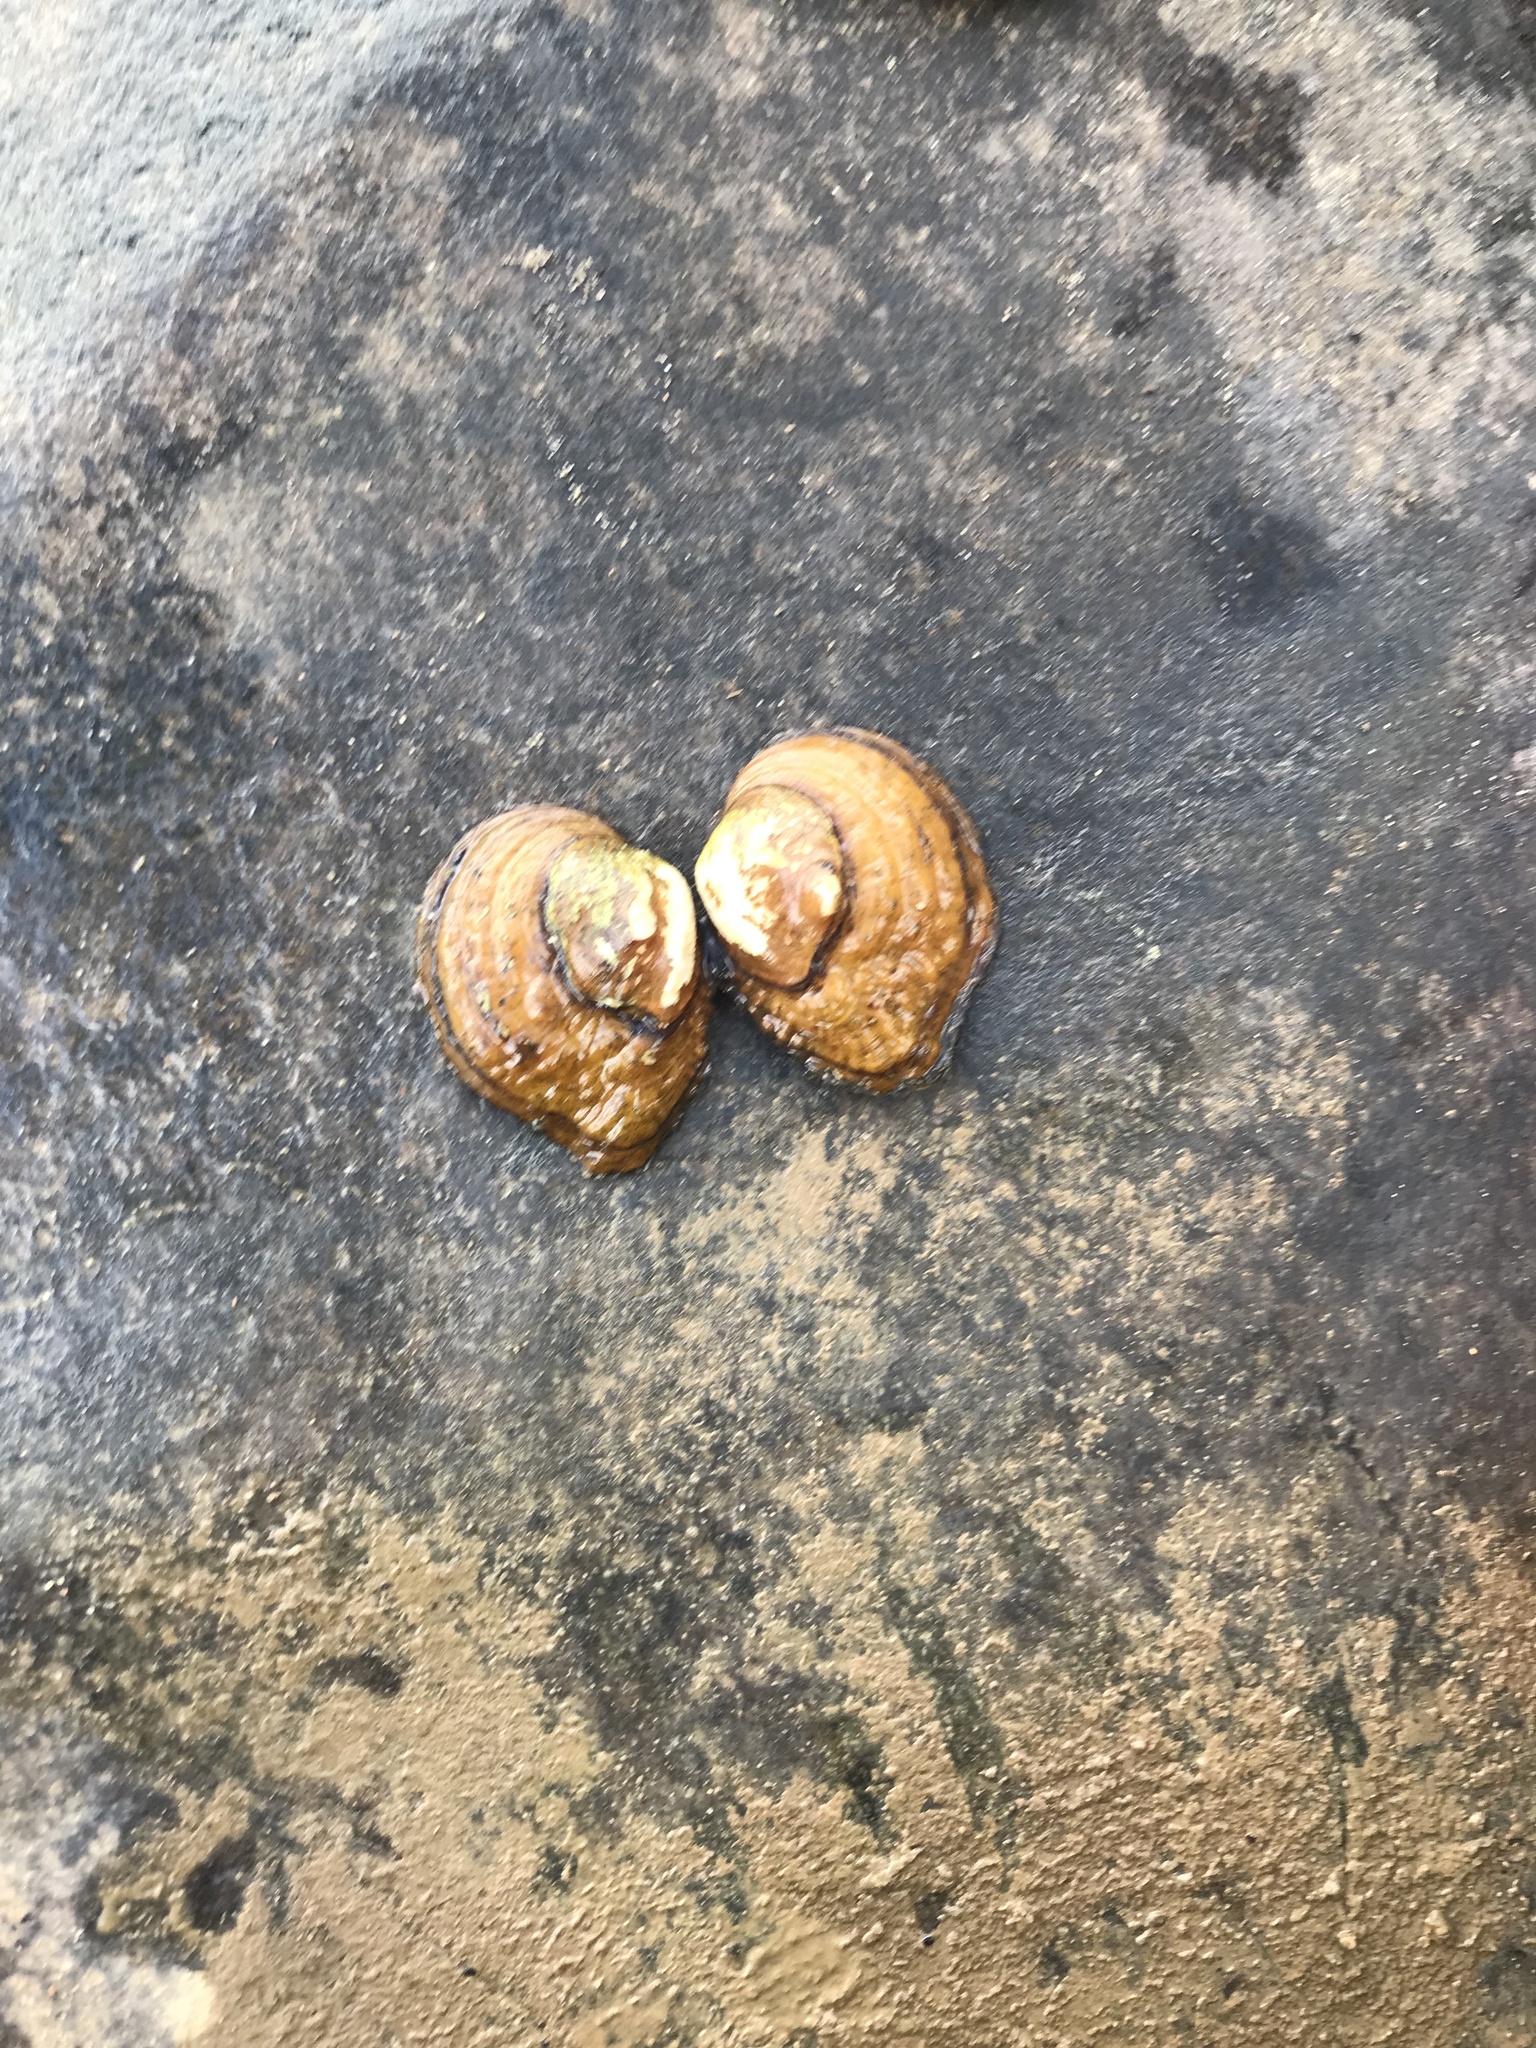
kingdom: Animalia
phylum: Mollusca
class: Bivalvia
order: Unionida
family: Unionidae
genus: Obliquaria
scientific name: Obliquaria reflexa
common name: Threehorn wartyback
